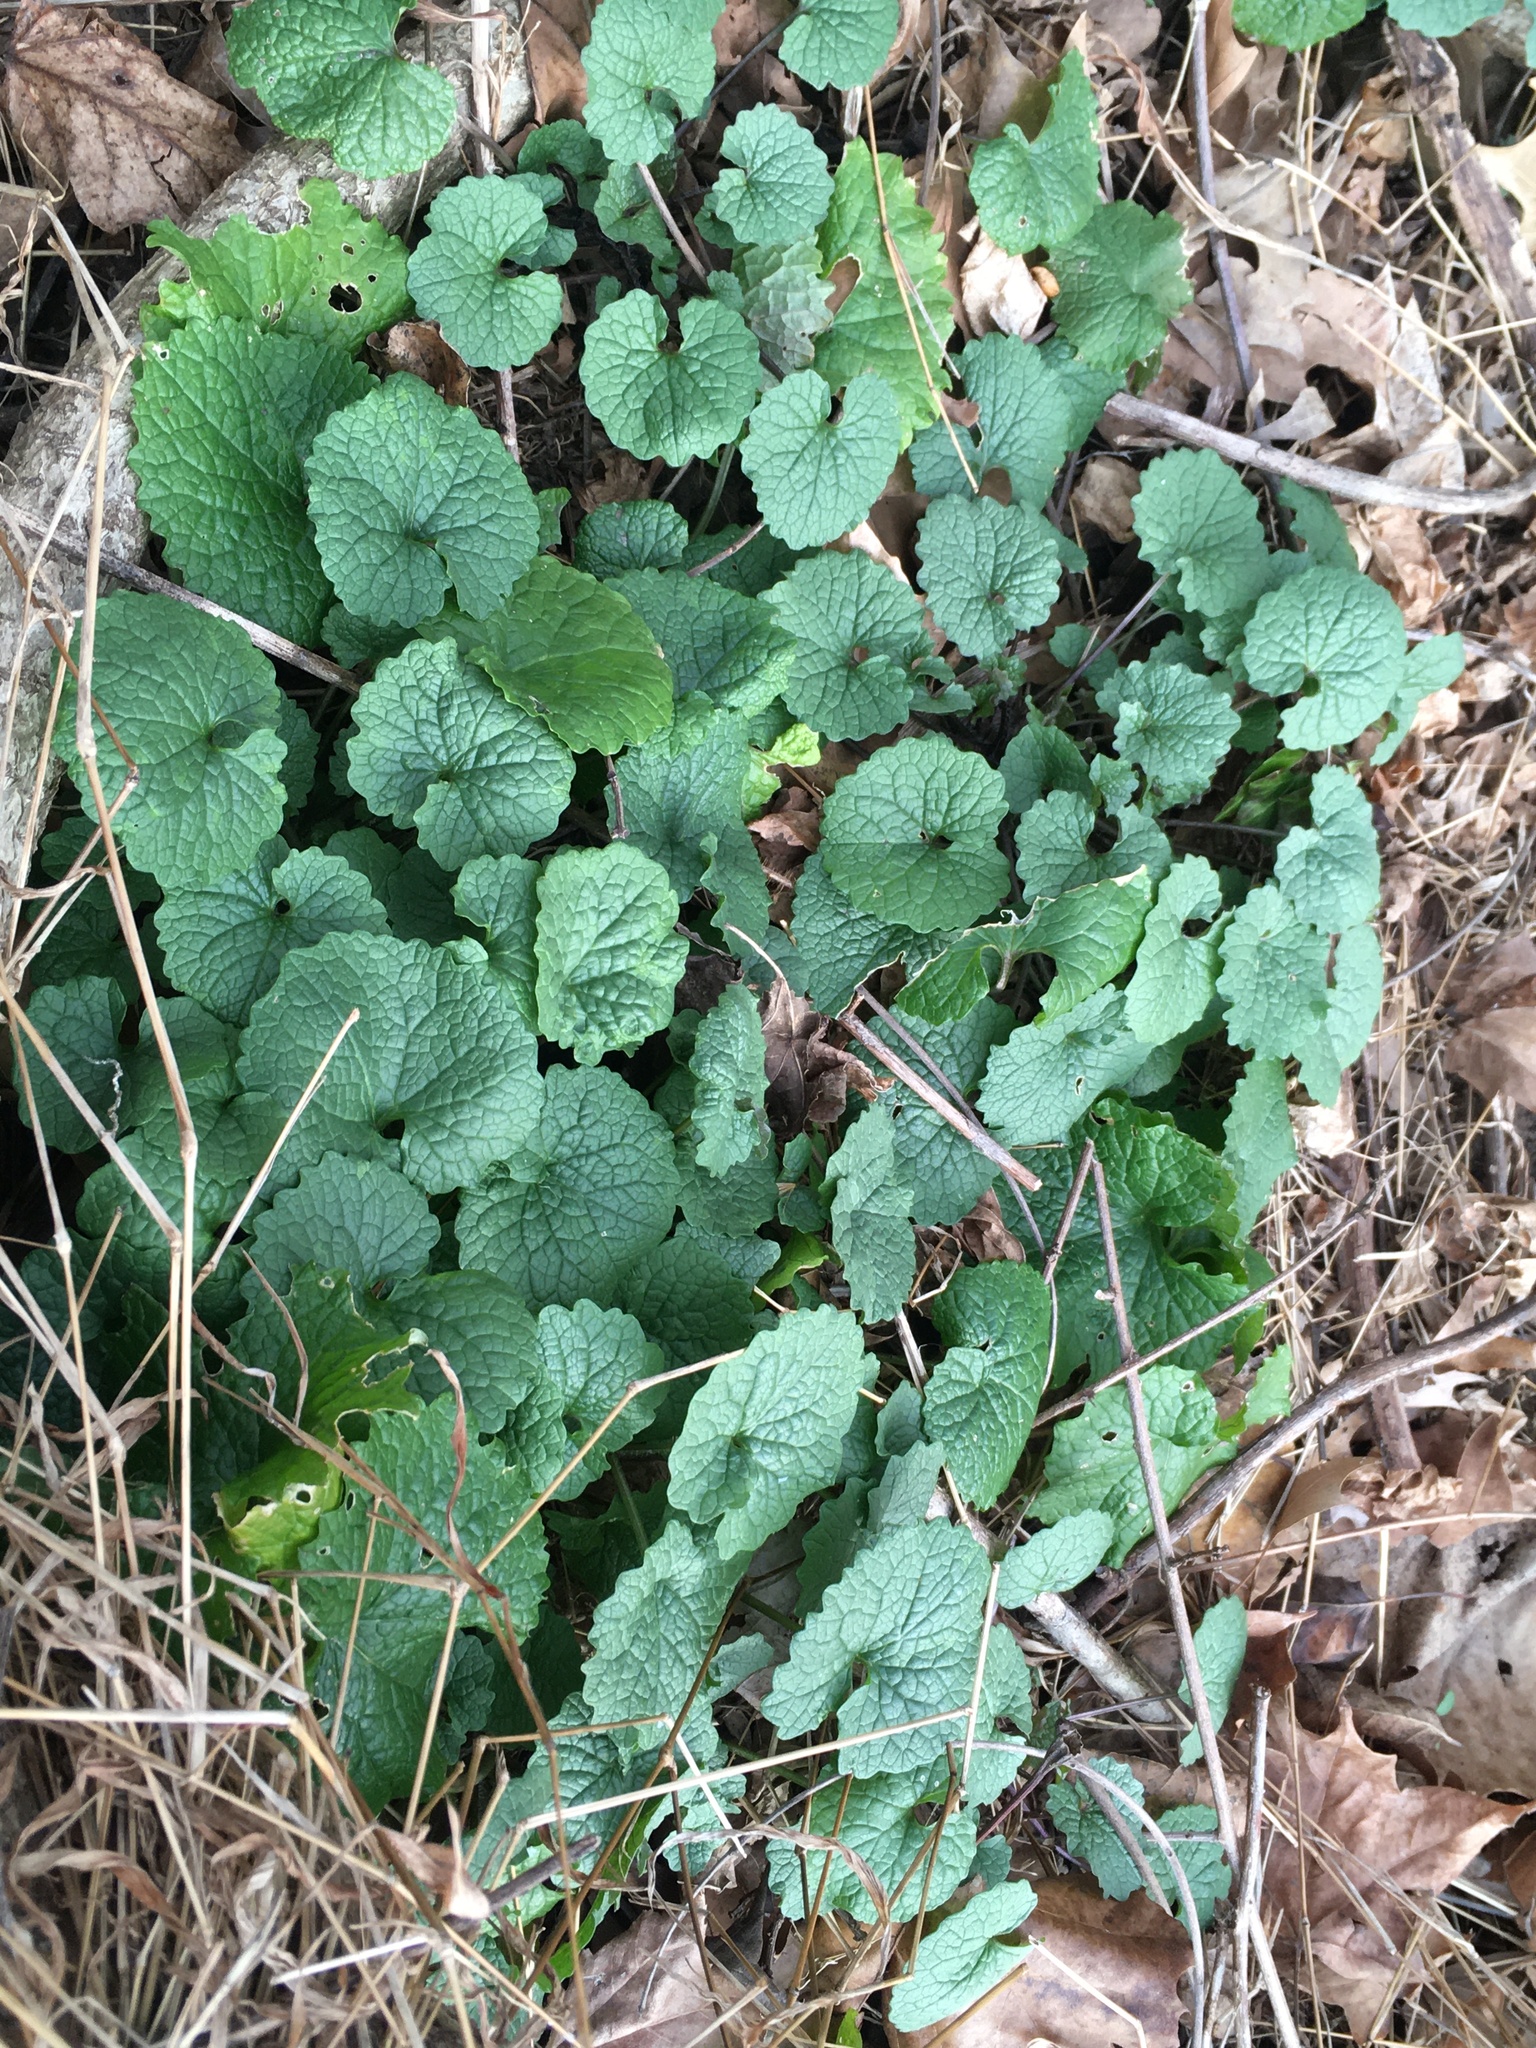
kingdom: Plantae
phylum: Tracheophyta
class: Magnoliopsida
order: Brassicales
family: Brassicaceae
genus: Alliaria
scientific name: Alliaria petiolata
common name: Garlic mustard
